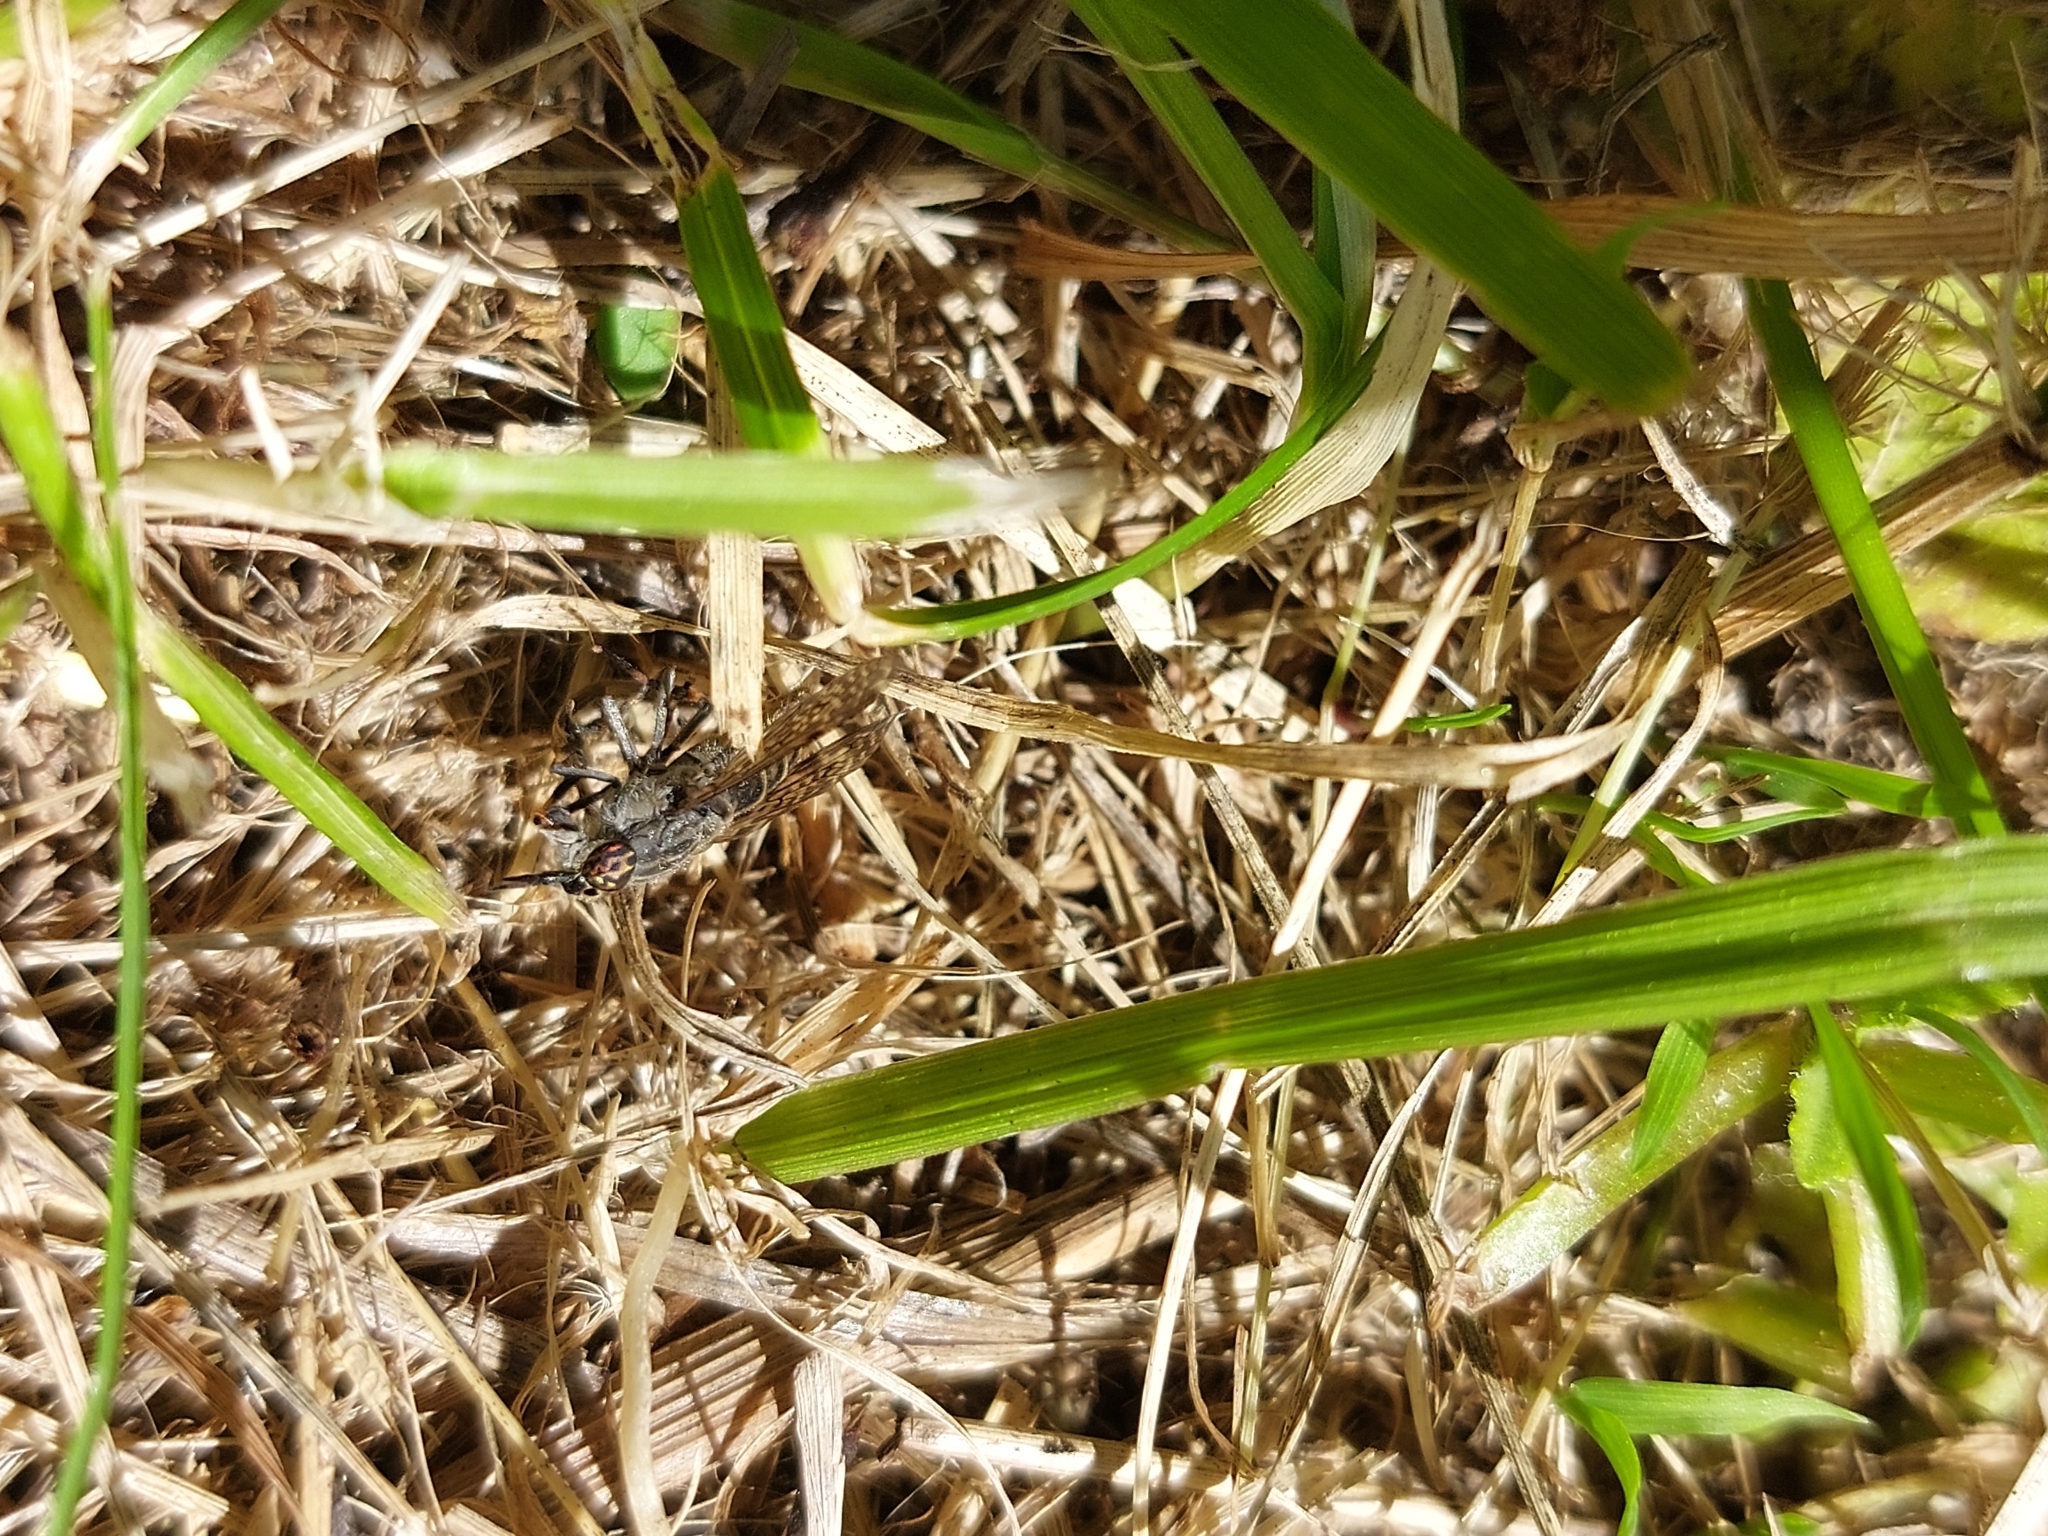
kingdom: Animalia
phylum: Arthropoda
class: Insecta
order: Diptera
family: Tabanidae
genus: Haematopota
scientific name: Haematopota pluvialis
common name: Common horse fly
